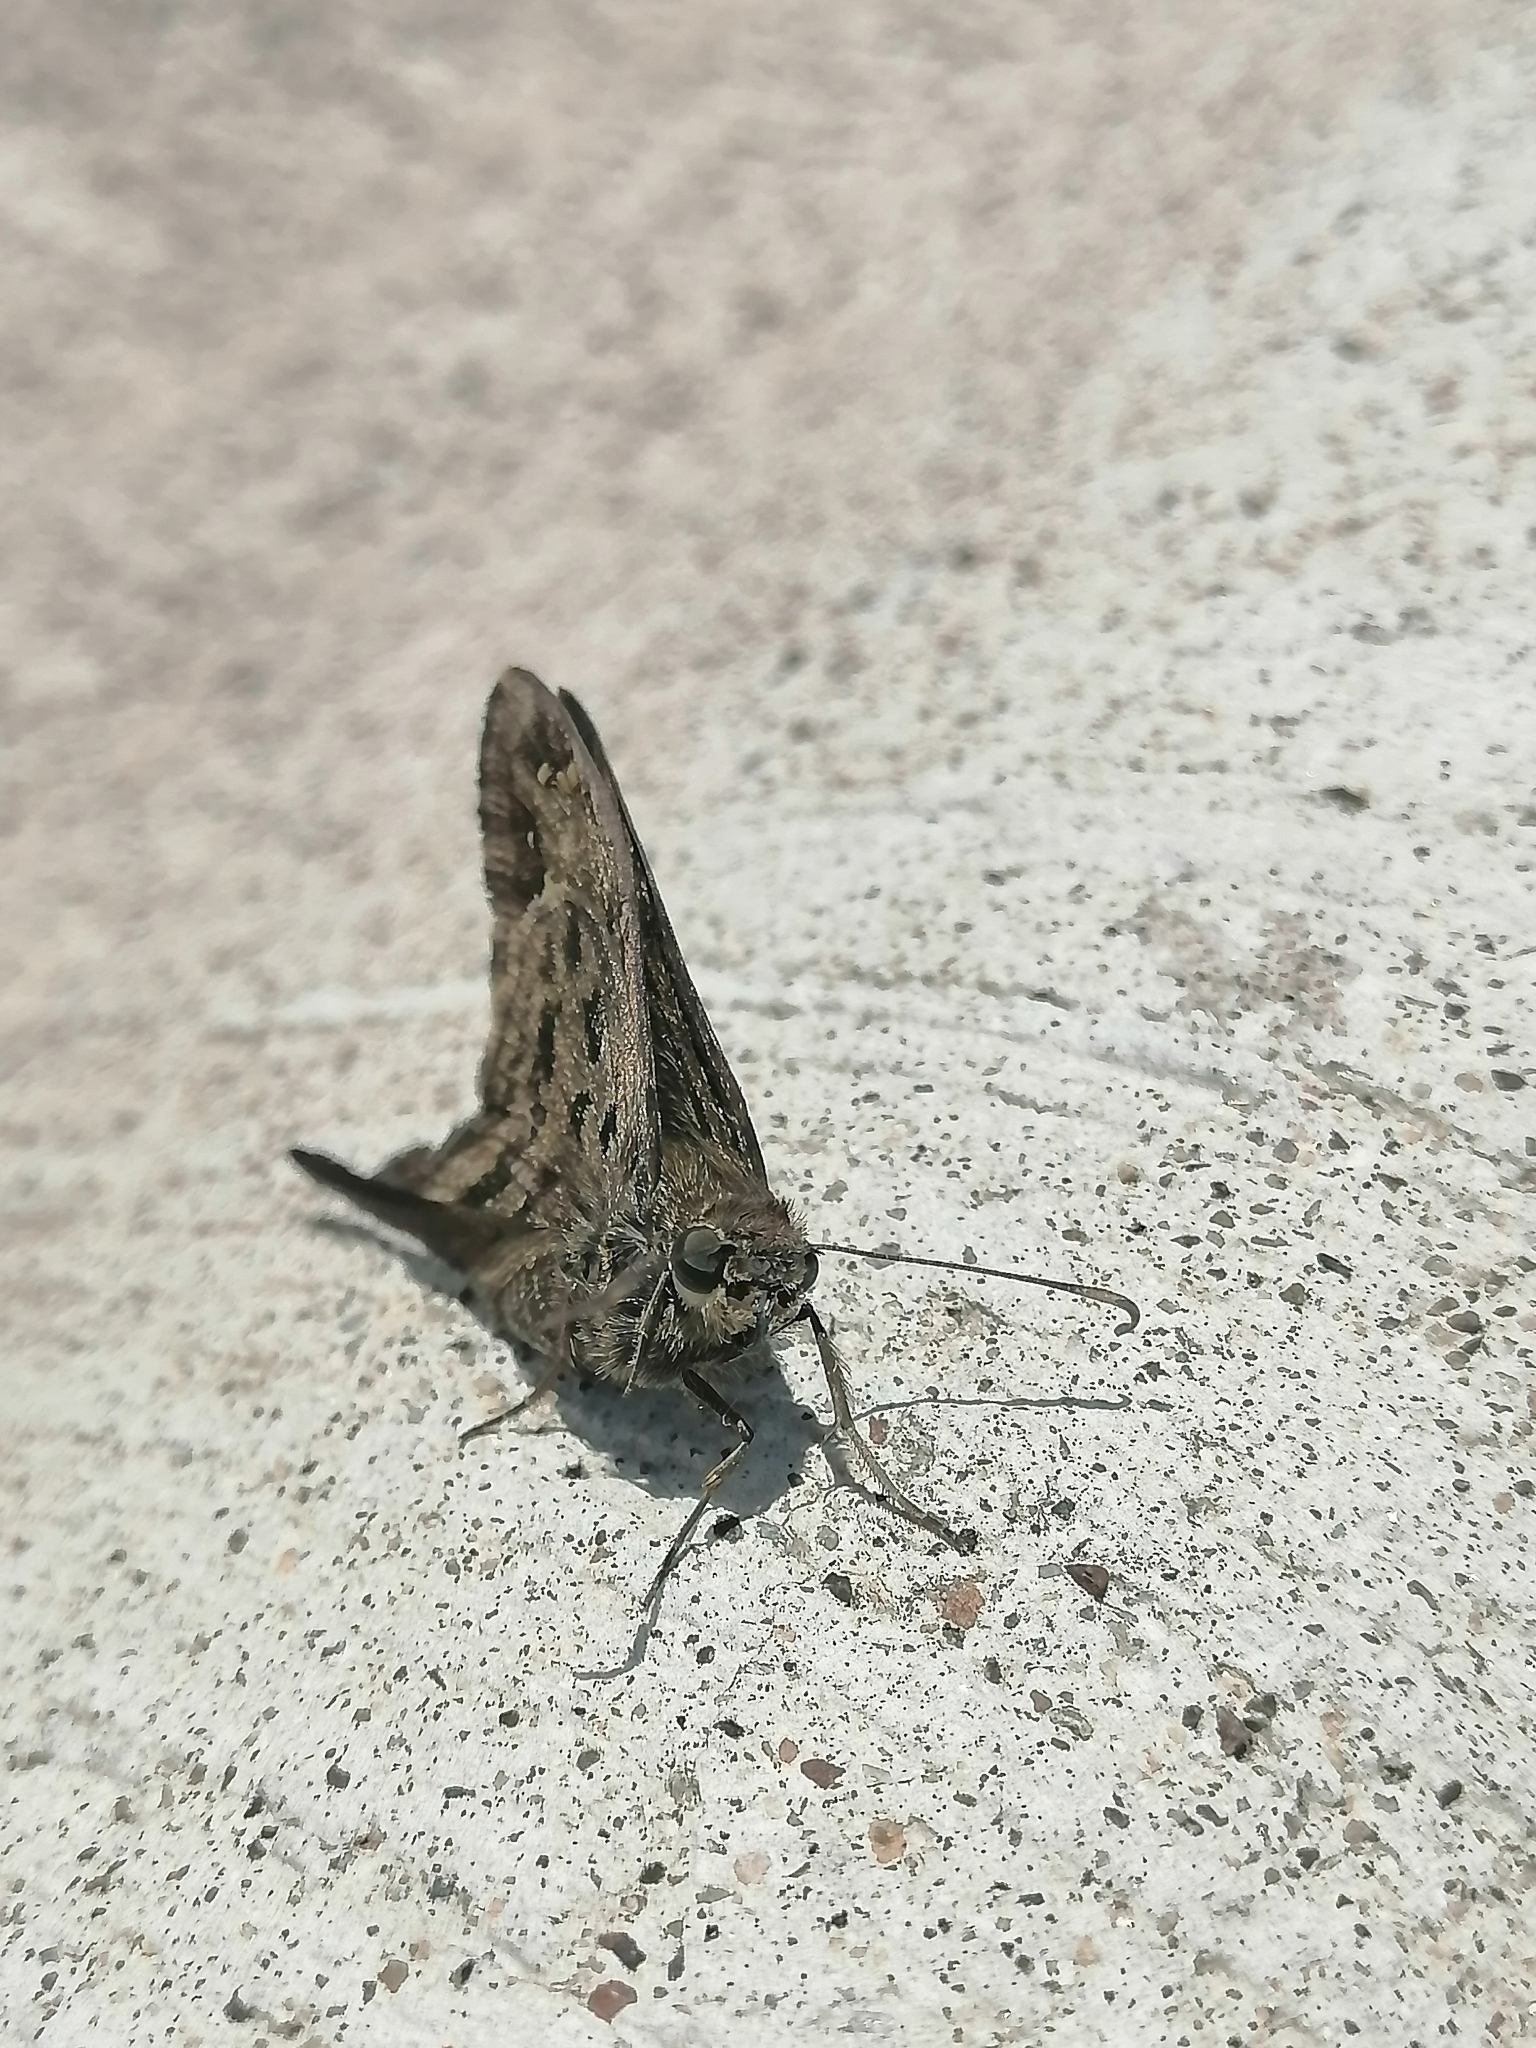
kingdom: Animalia
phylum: Arthropoda
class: Insecta
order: Lepidoptera
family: Hesperiidae
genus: Thorybes
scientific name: Thorybes
